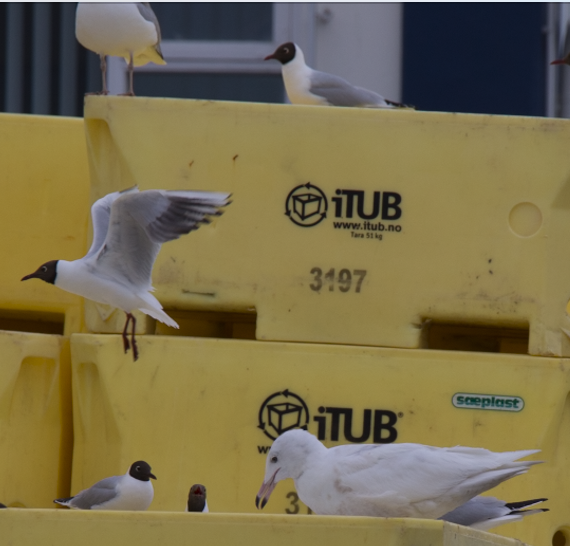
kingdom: Animalia
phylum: Chordata
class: Aves
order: Charadriiformes
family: Laridae
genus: Larus
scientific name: Larus argentatus
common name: Herring gull
